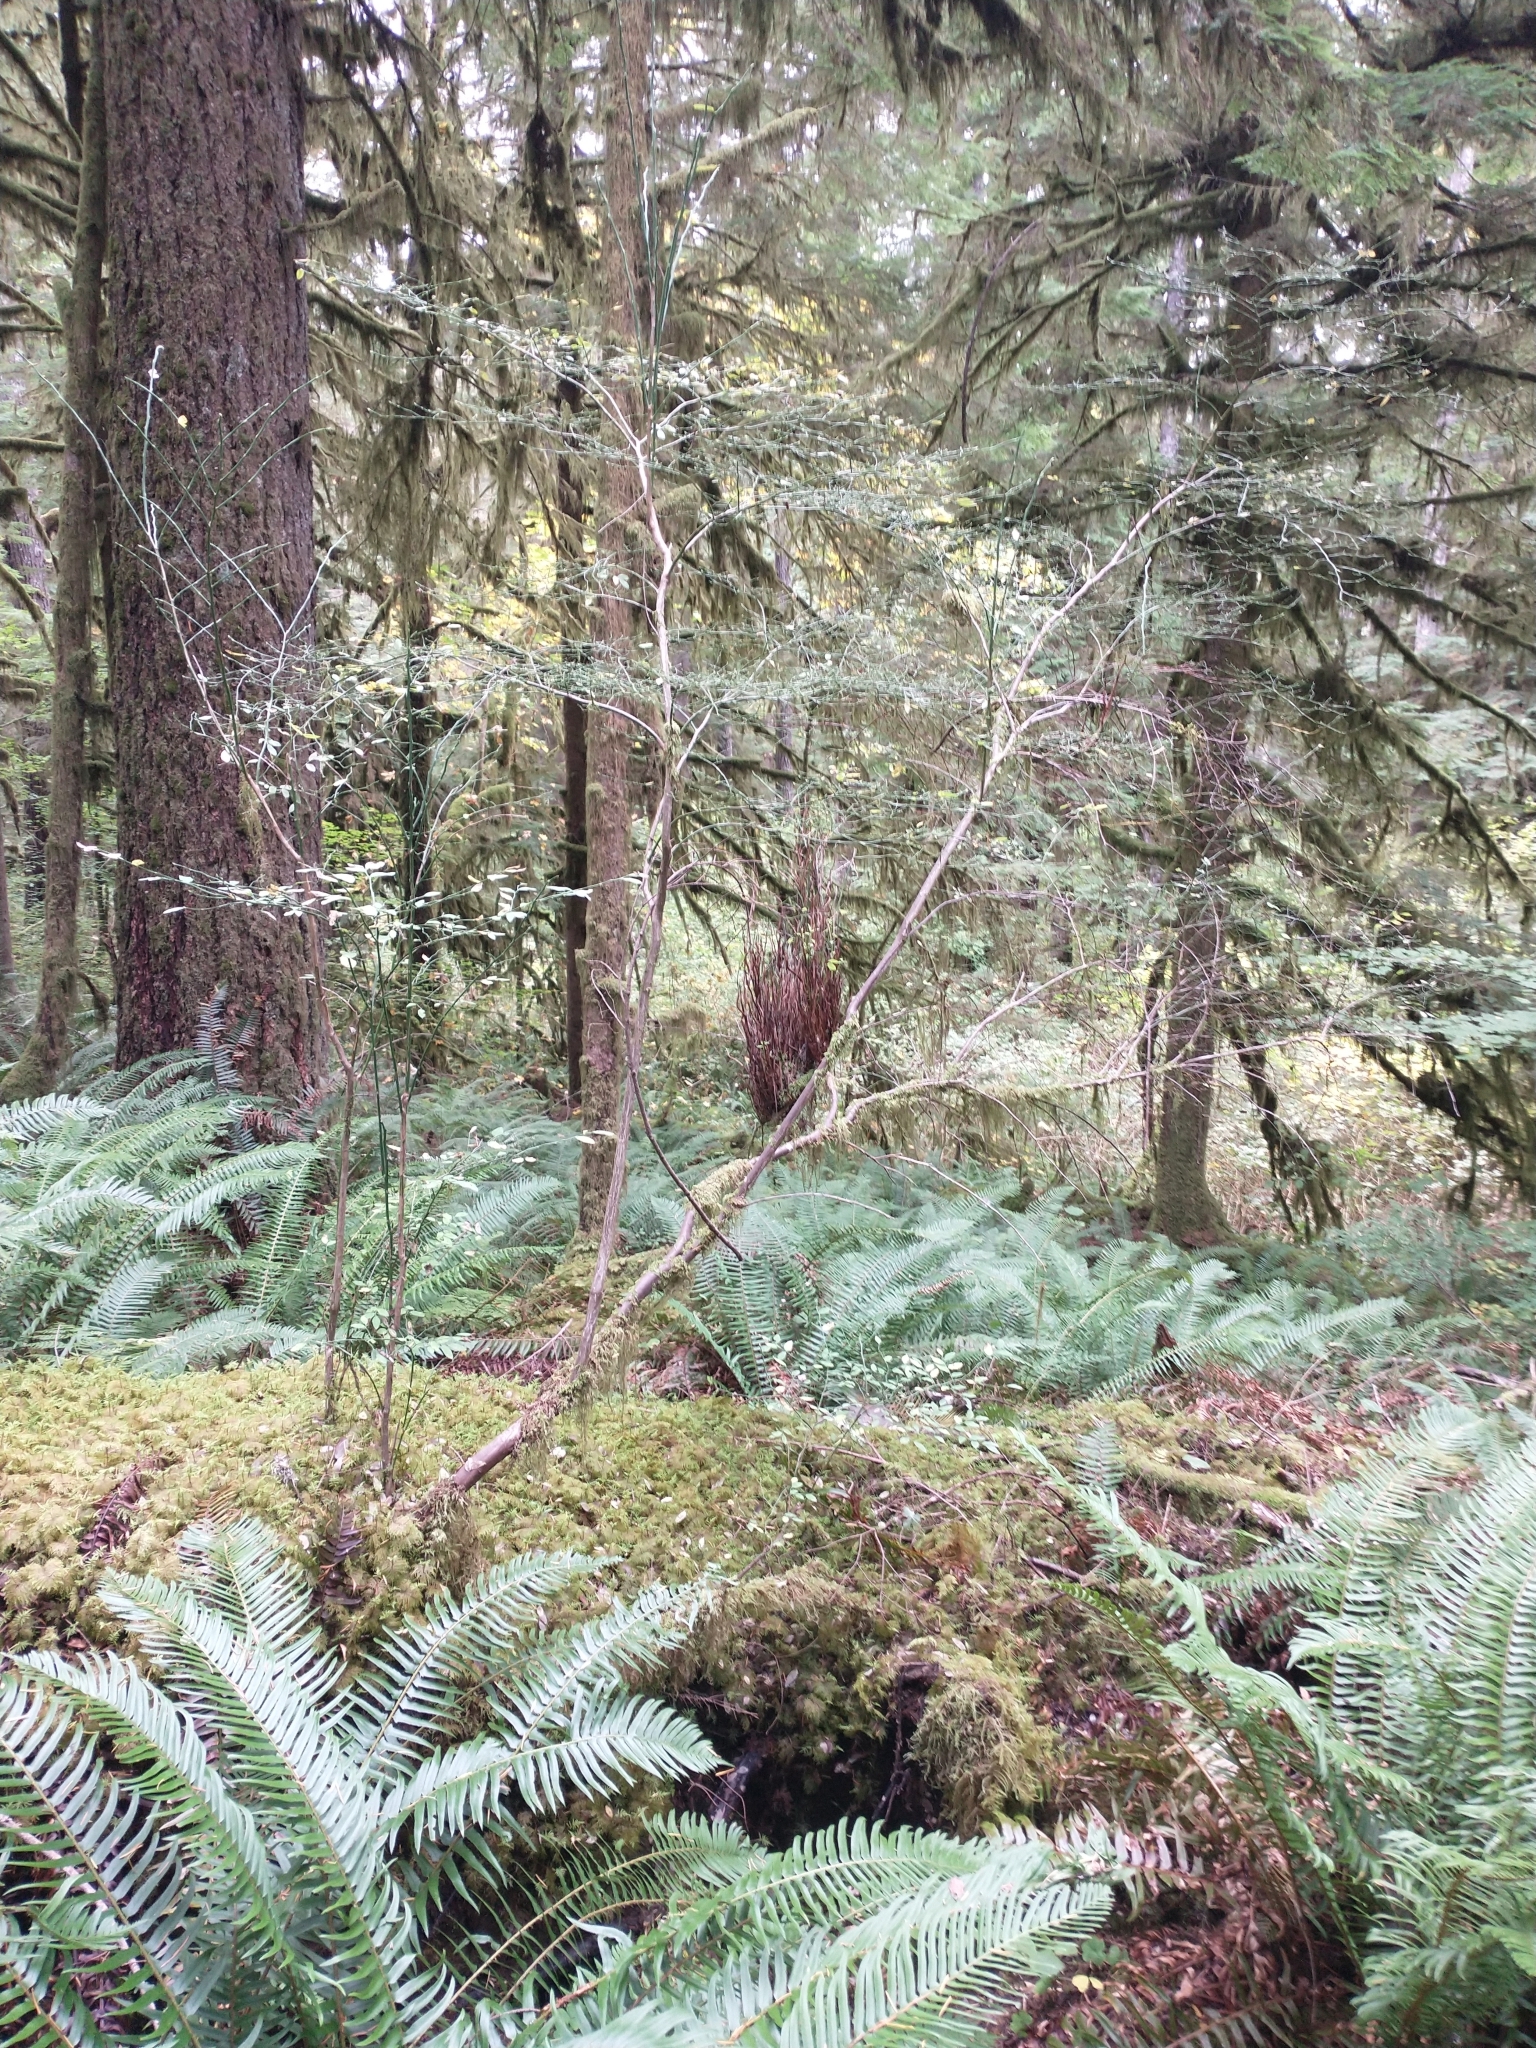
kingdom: Plantae
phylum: Tracheophyta
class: Magnoliopsida
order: Ericales
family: Ericaceae
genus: Vaccinium
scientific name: Vaccinium parvifolium
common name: Red-huckleberry
